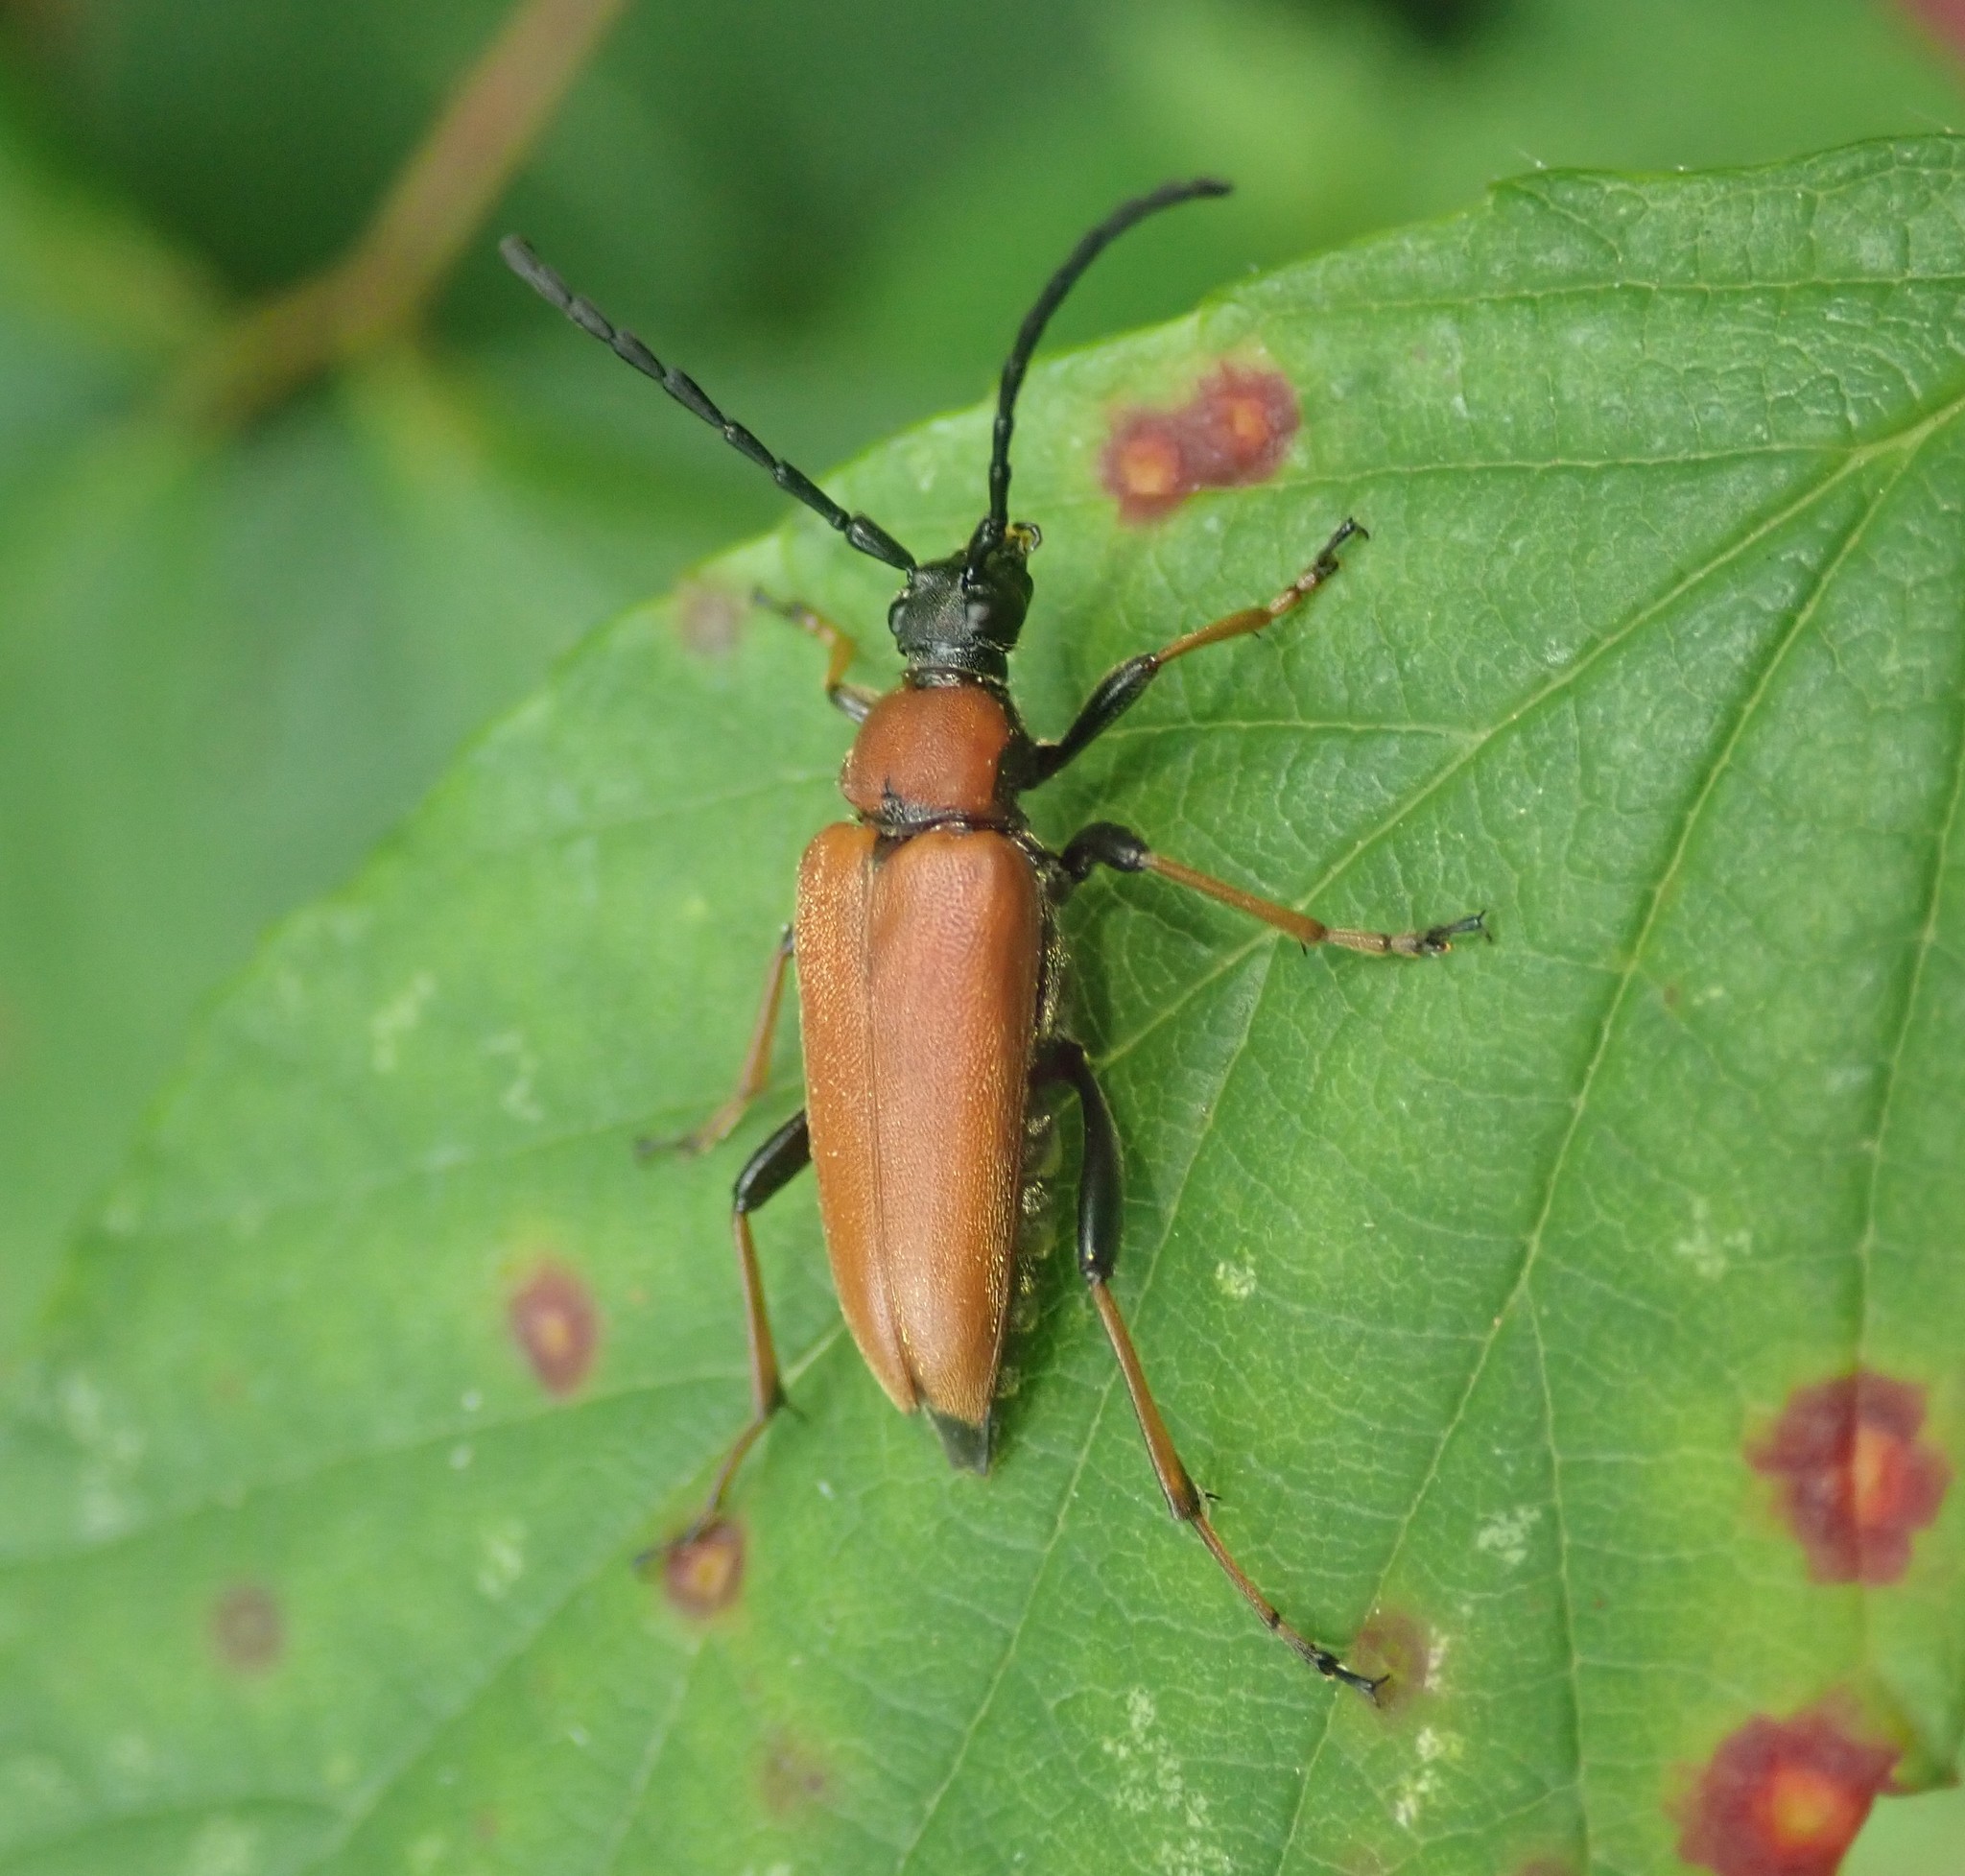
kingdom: Animalia
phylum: Arthropoda
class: Insecta
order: Coleoptera
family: Cerambycidae
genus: Stictoleptura
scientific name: Stictoleptura rubra
